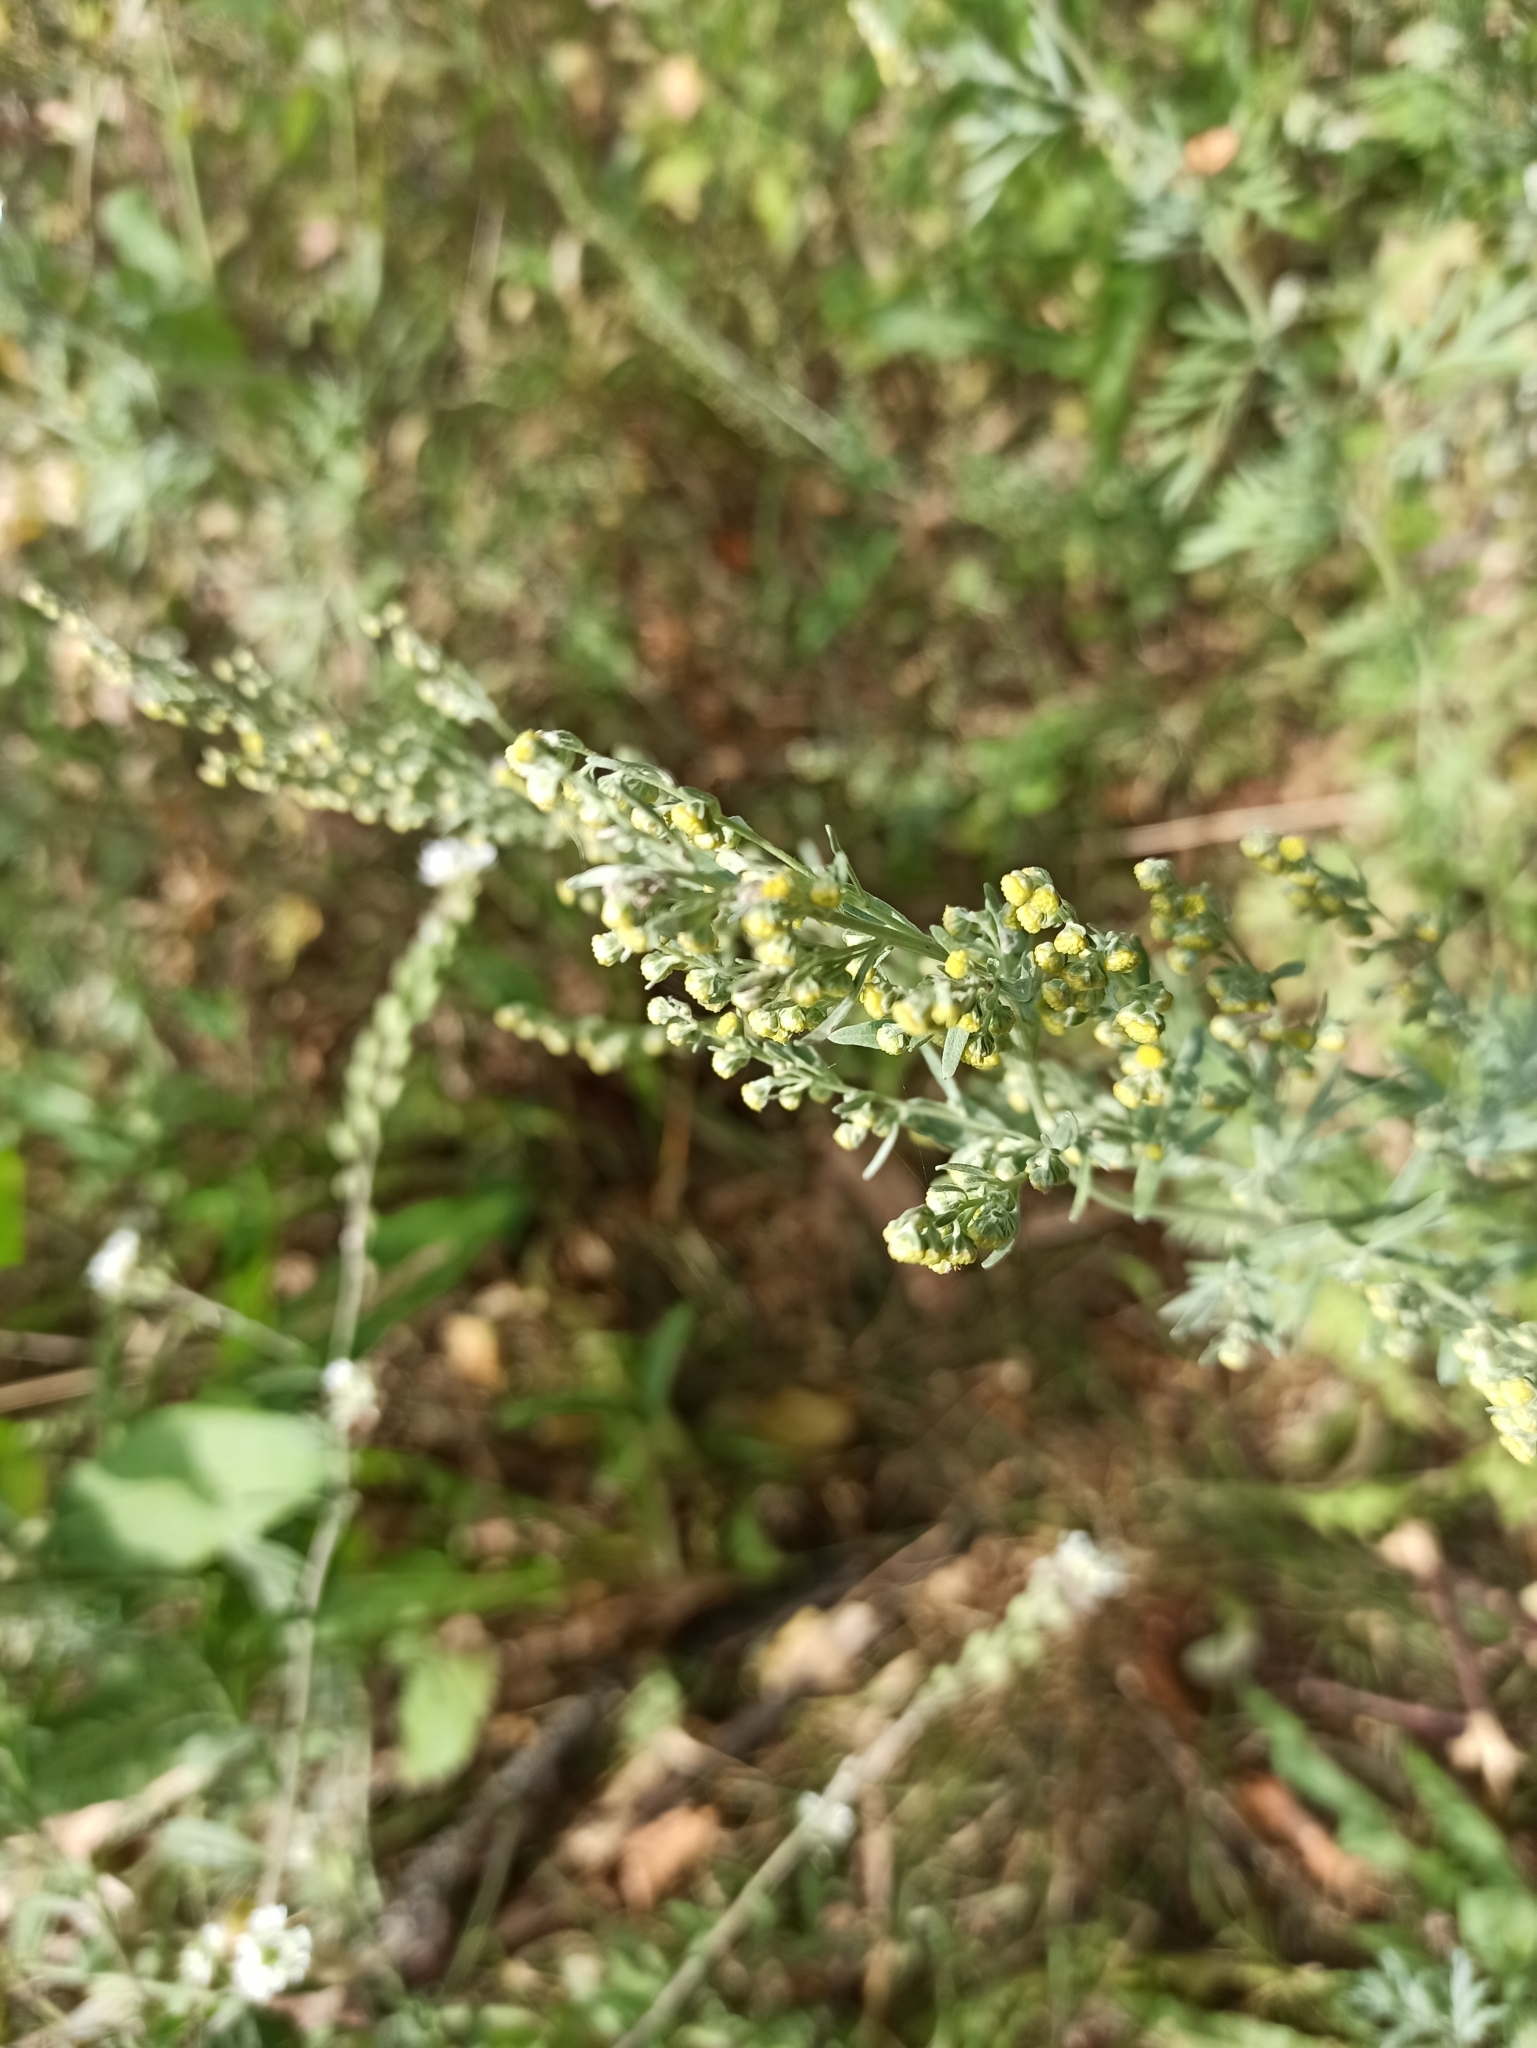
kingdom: Plantae
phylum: Tracheophyta
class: Magnoliopsida
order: Asterales
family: Asteraceae
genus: Artemisia
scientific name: Artemisia absinthium
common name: Wormwood
